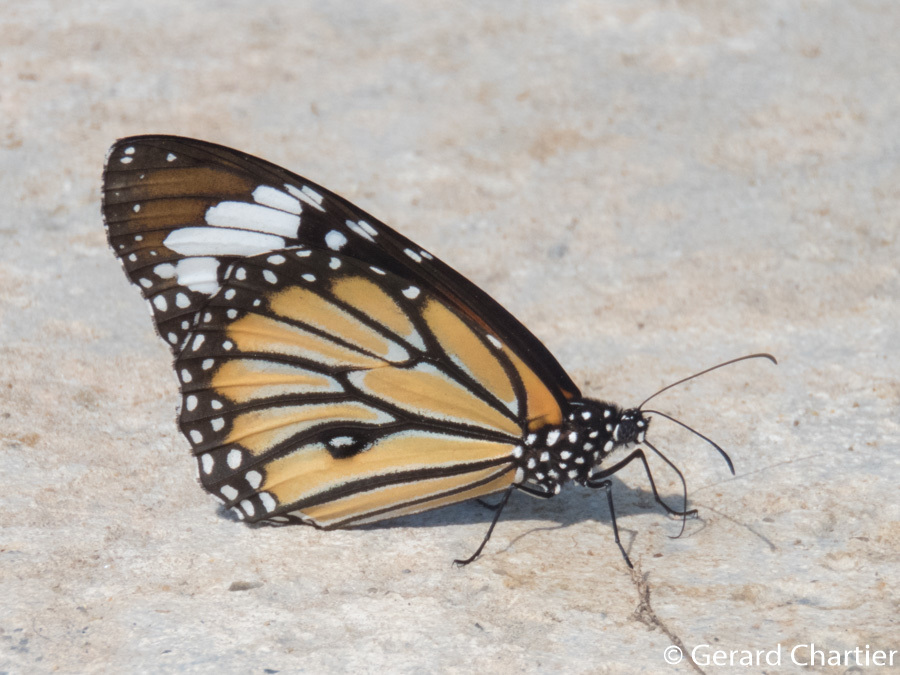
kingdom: Animalia
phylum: Arthropoda
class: Insecta
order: Lepidoptera
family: Nymphalidae
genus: Danaus
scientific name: Danaus genutia
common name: Common tiger butterfly
